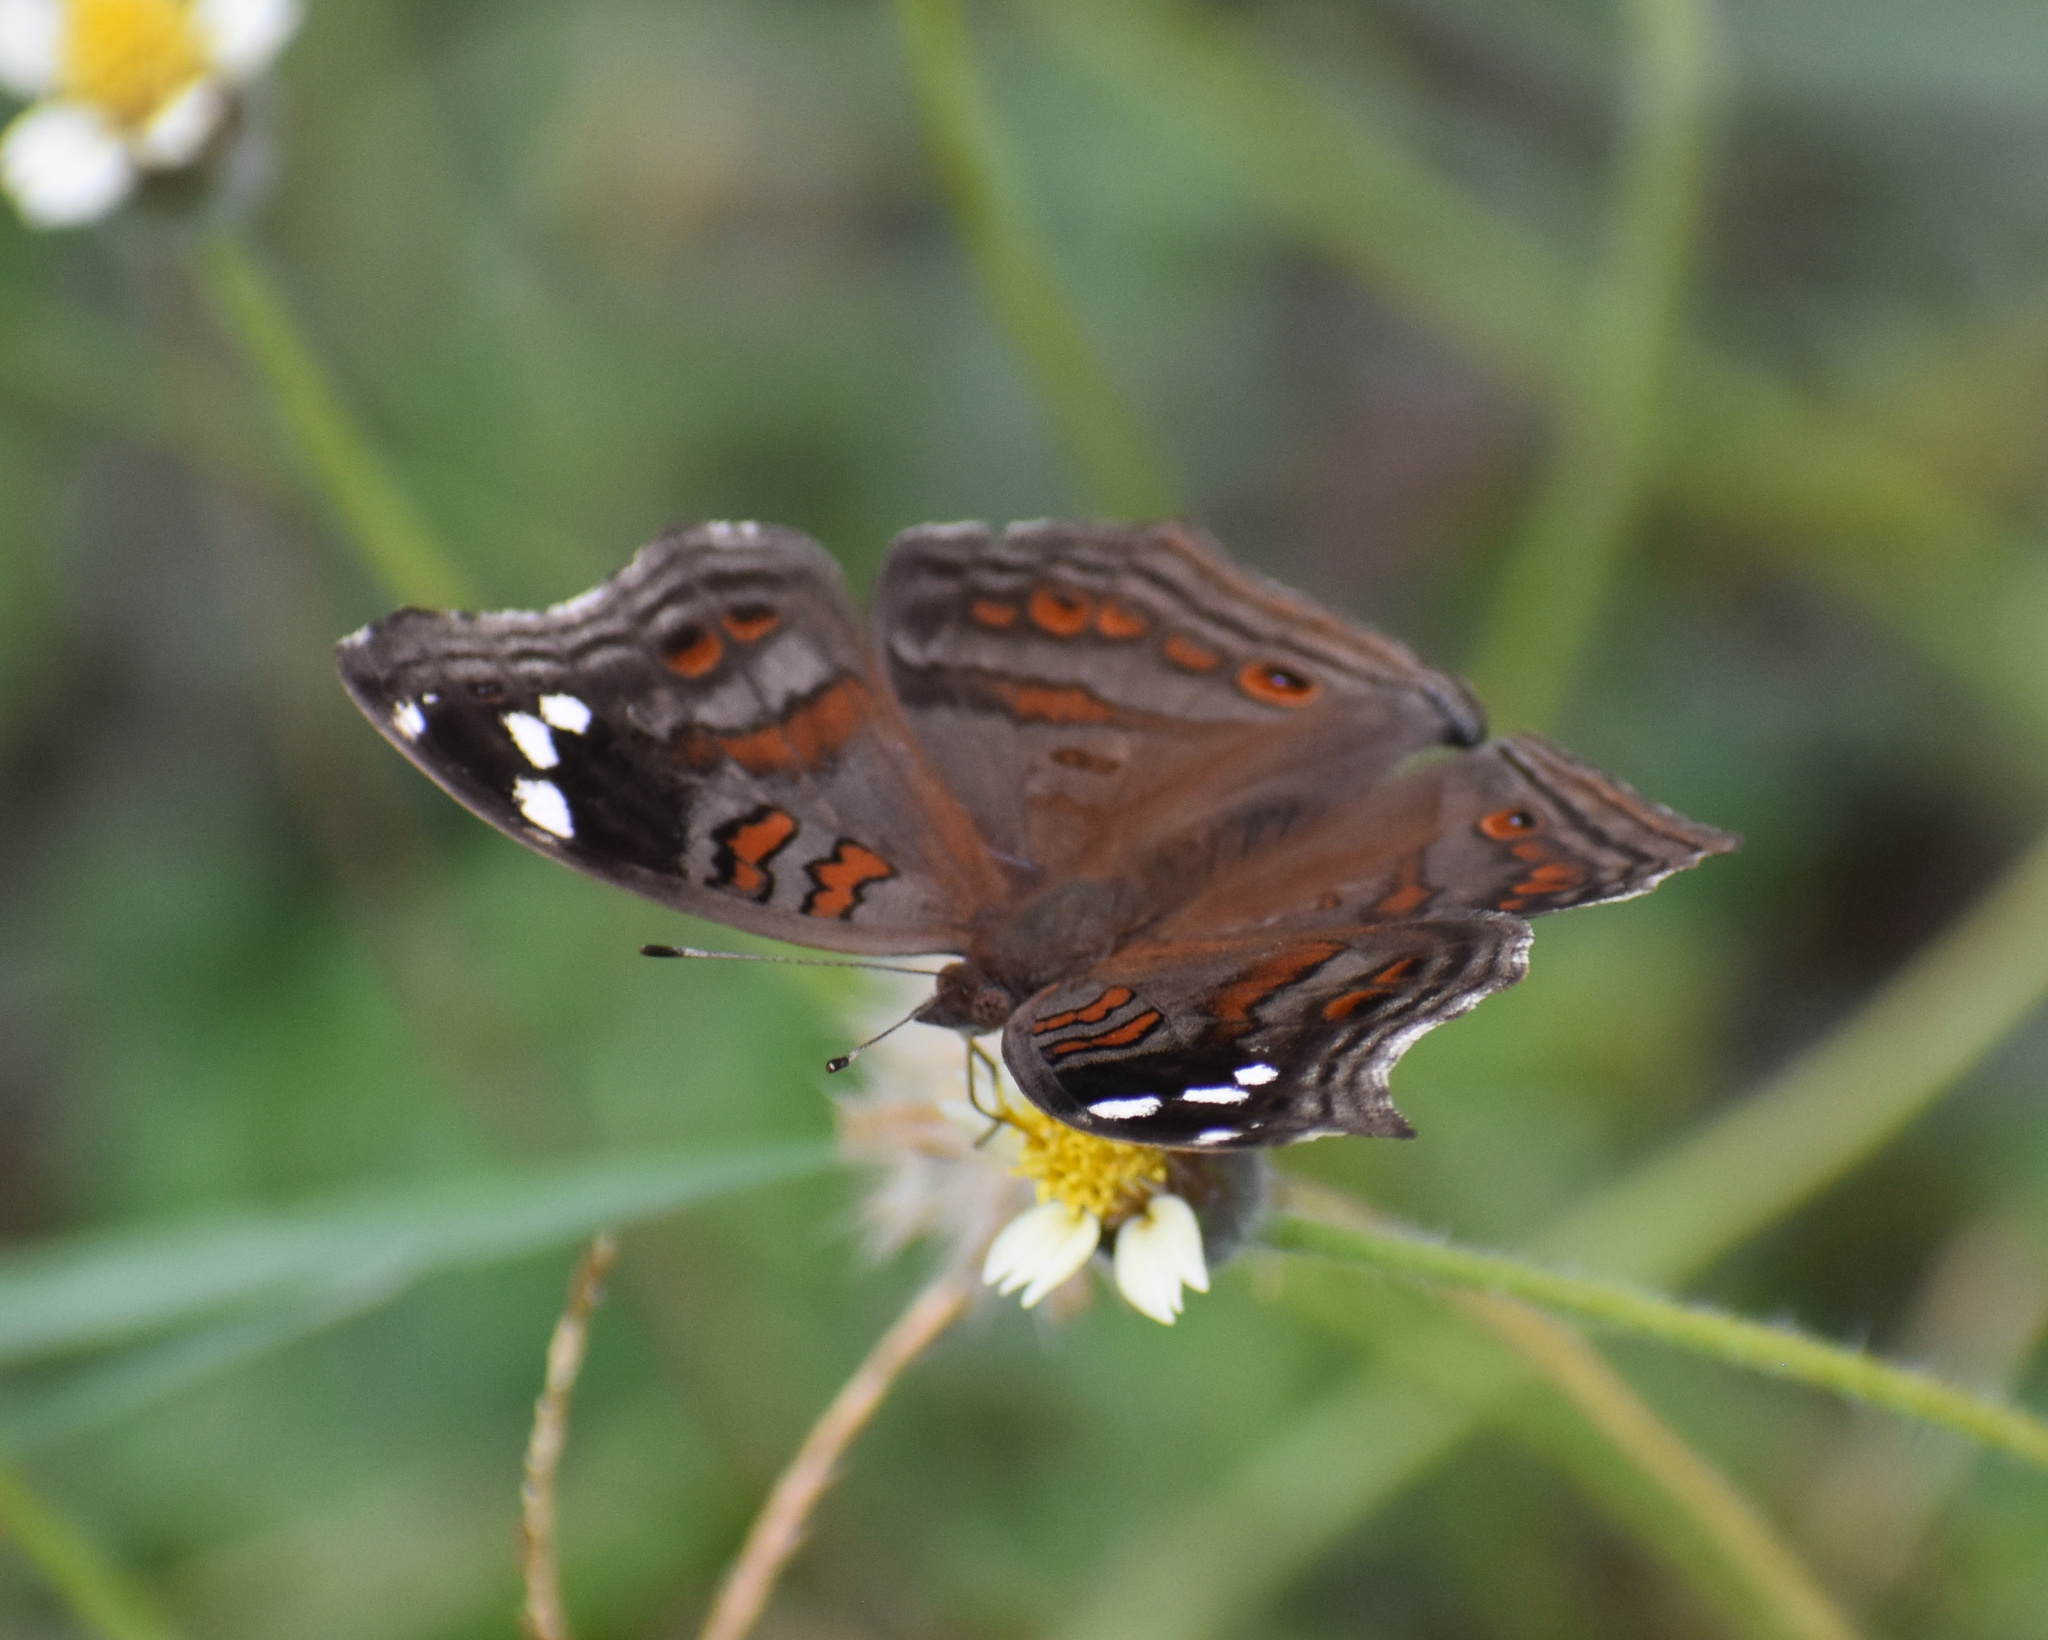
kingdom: Animalia
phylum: Arthropoda
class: Insecta
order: Lepidoptera
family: Nymphalidae
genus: Junonia
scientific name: Junonia natalica
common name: Brown pansy
